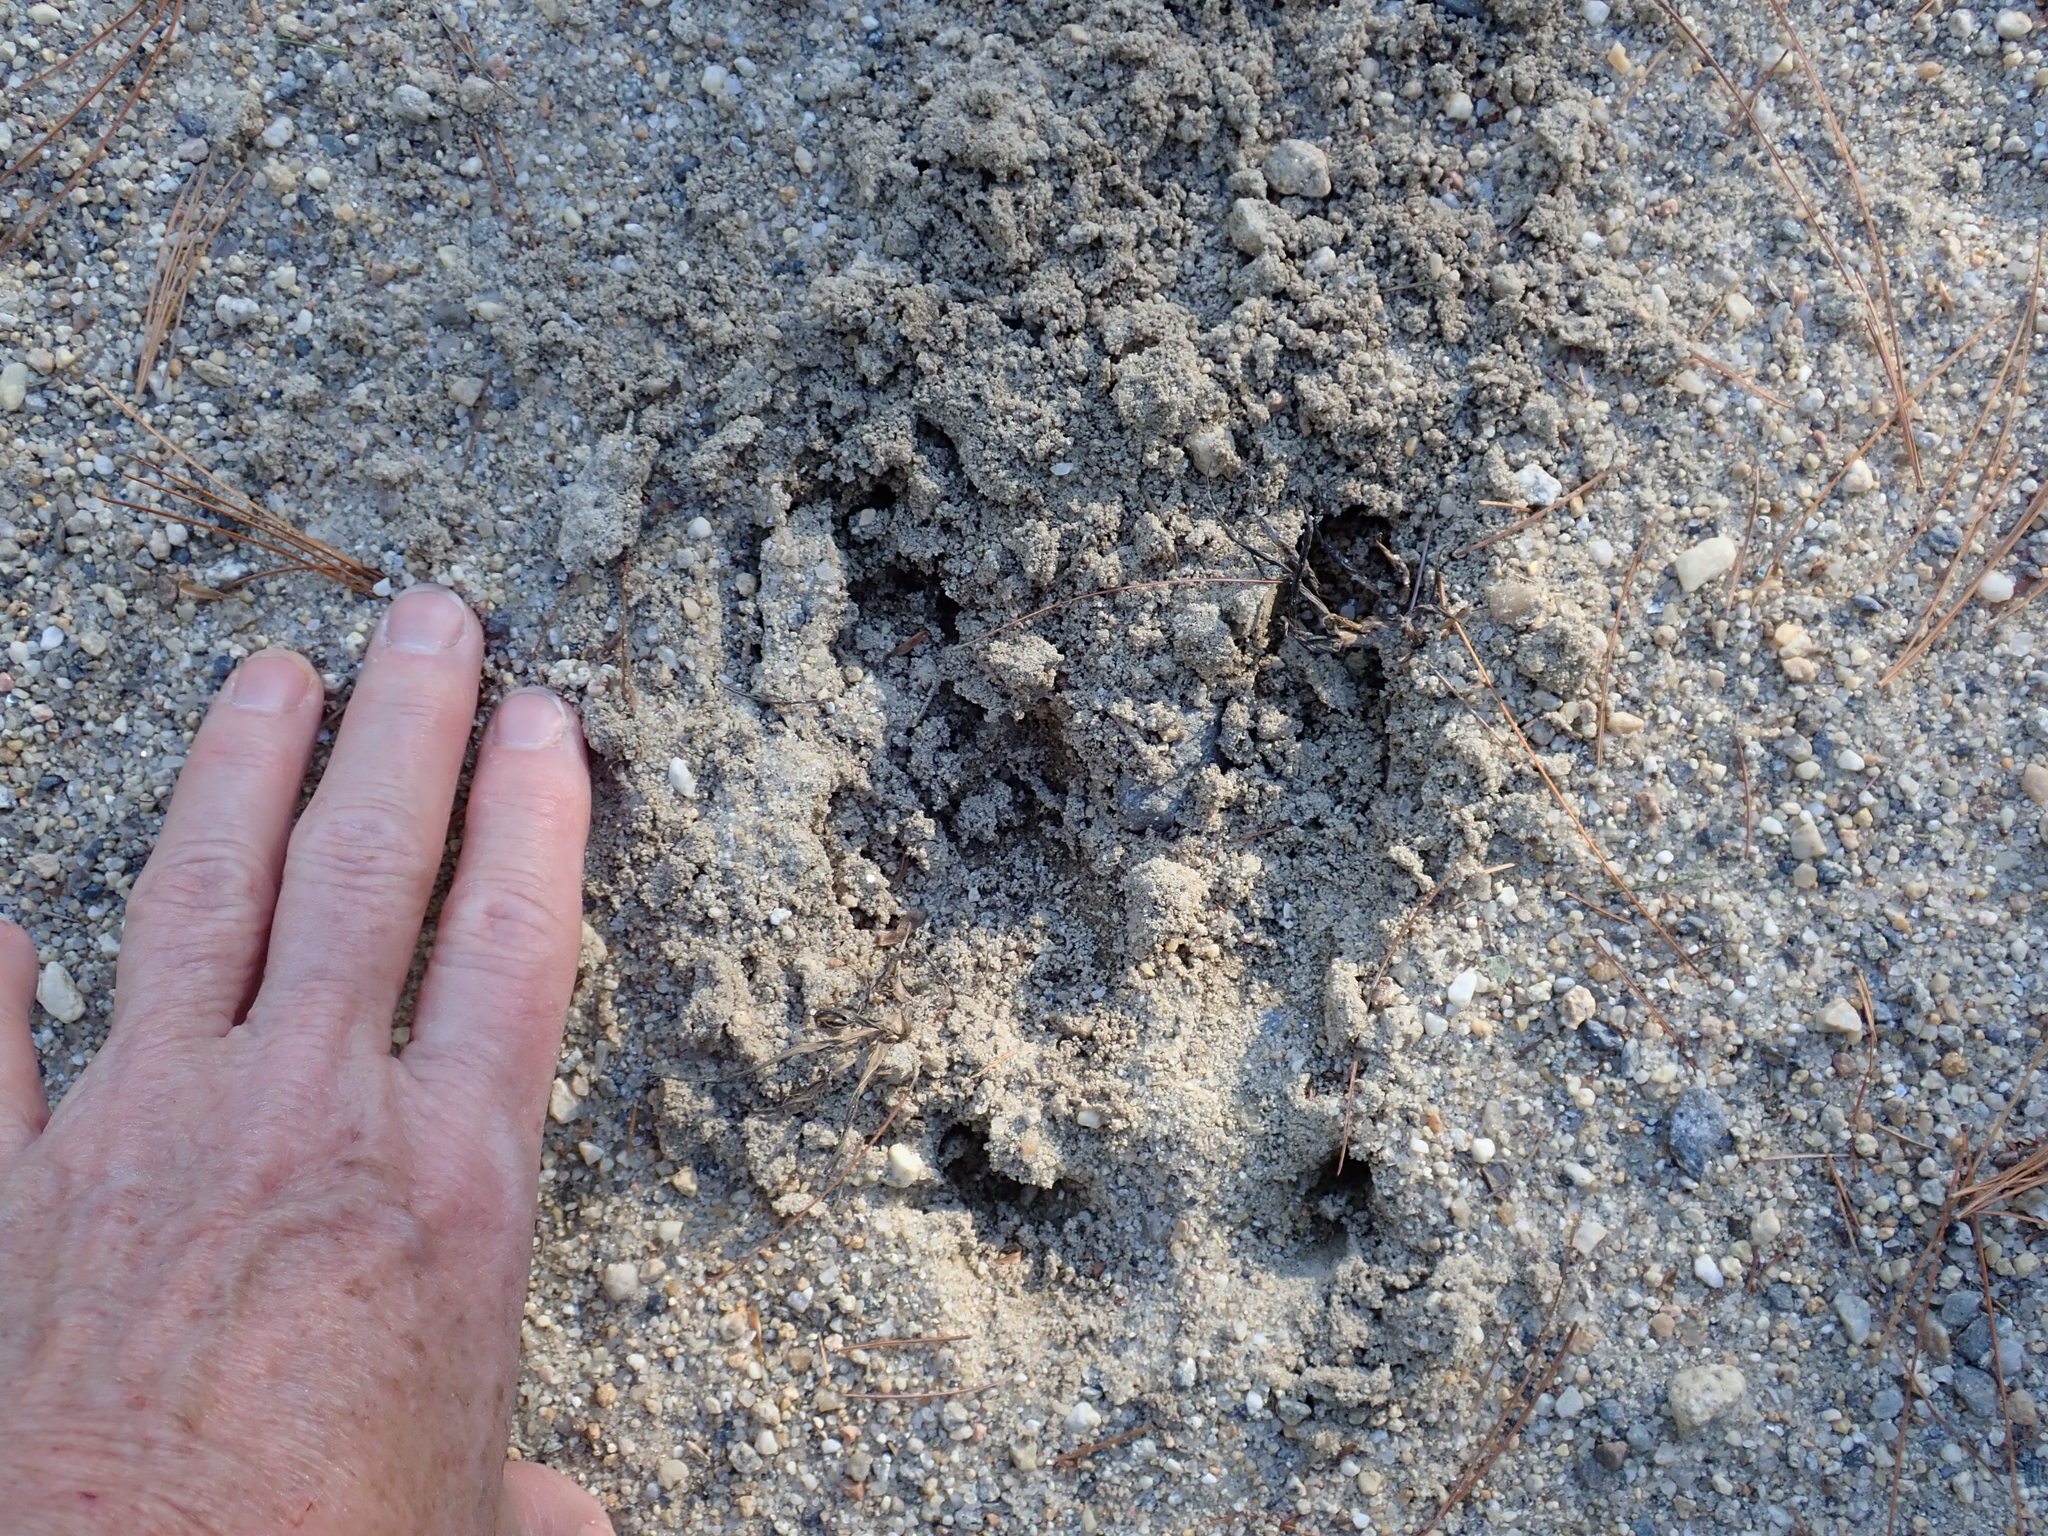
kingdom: Animalia
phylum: Chordata
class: Mammalia
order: Artiodactyla
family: Cervidae
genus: Alces
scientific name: Alces alces
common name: Moose
